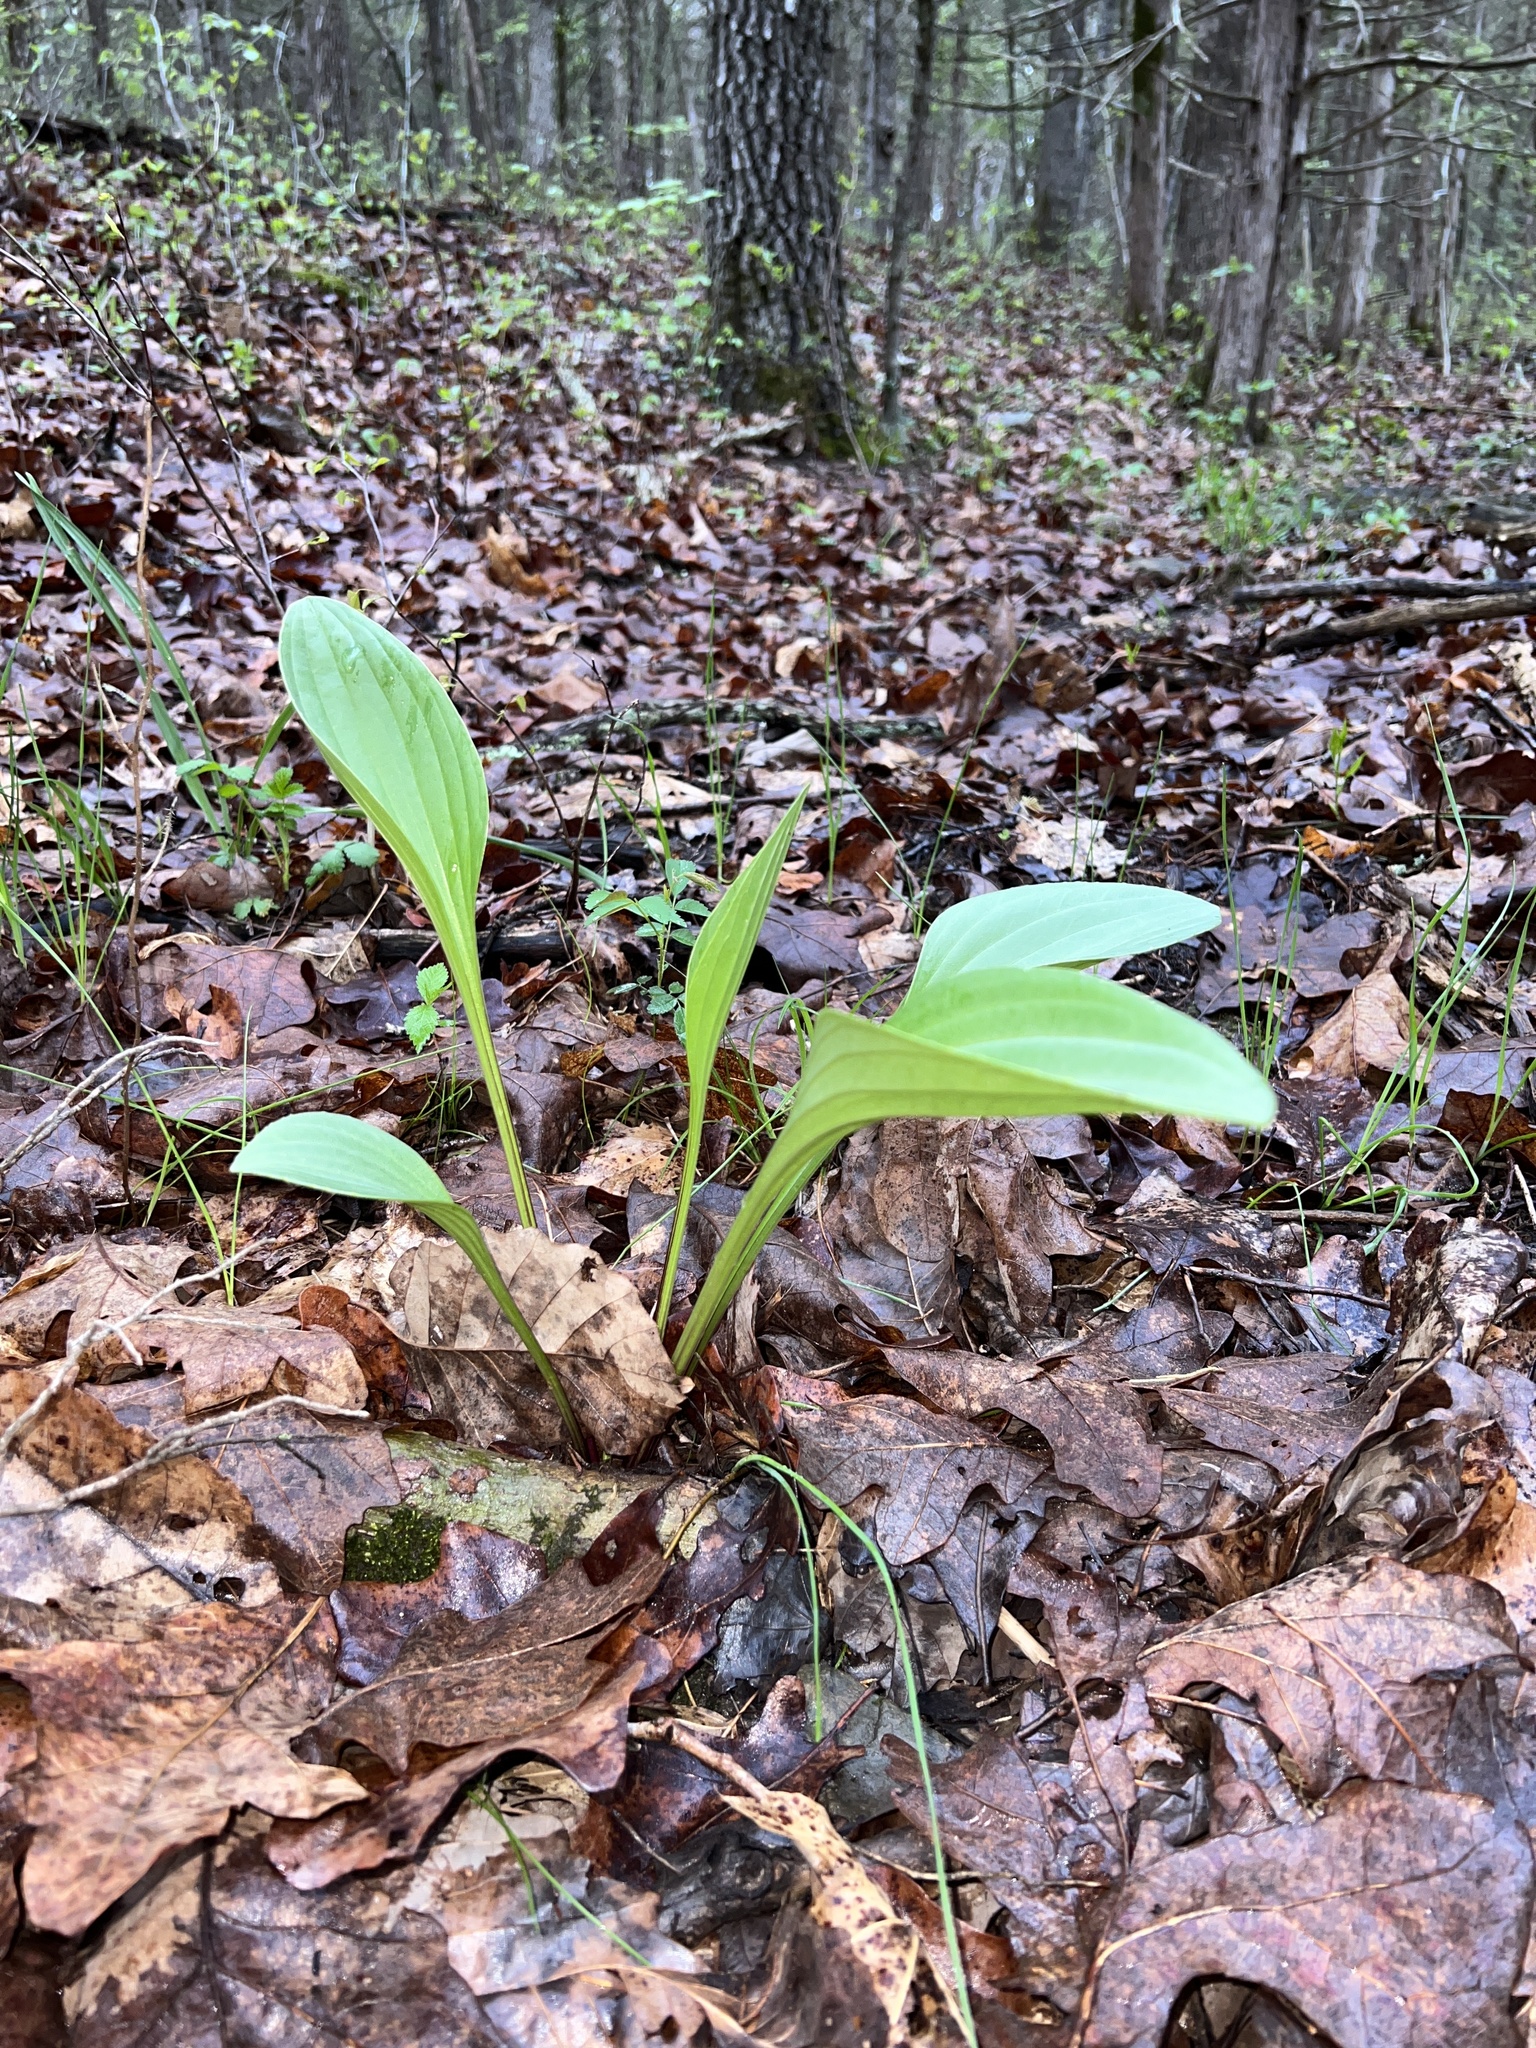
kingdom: Plantae
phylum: Tracheophyta
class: Magnoliopsida
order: Asterales
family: Asteraceae
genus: Arnoglossum
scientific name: Arnoglossum plantagineum
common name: Groove-stemmed indian-plantain
